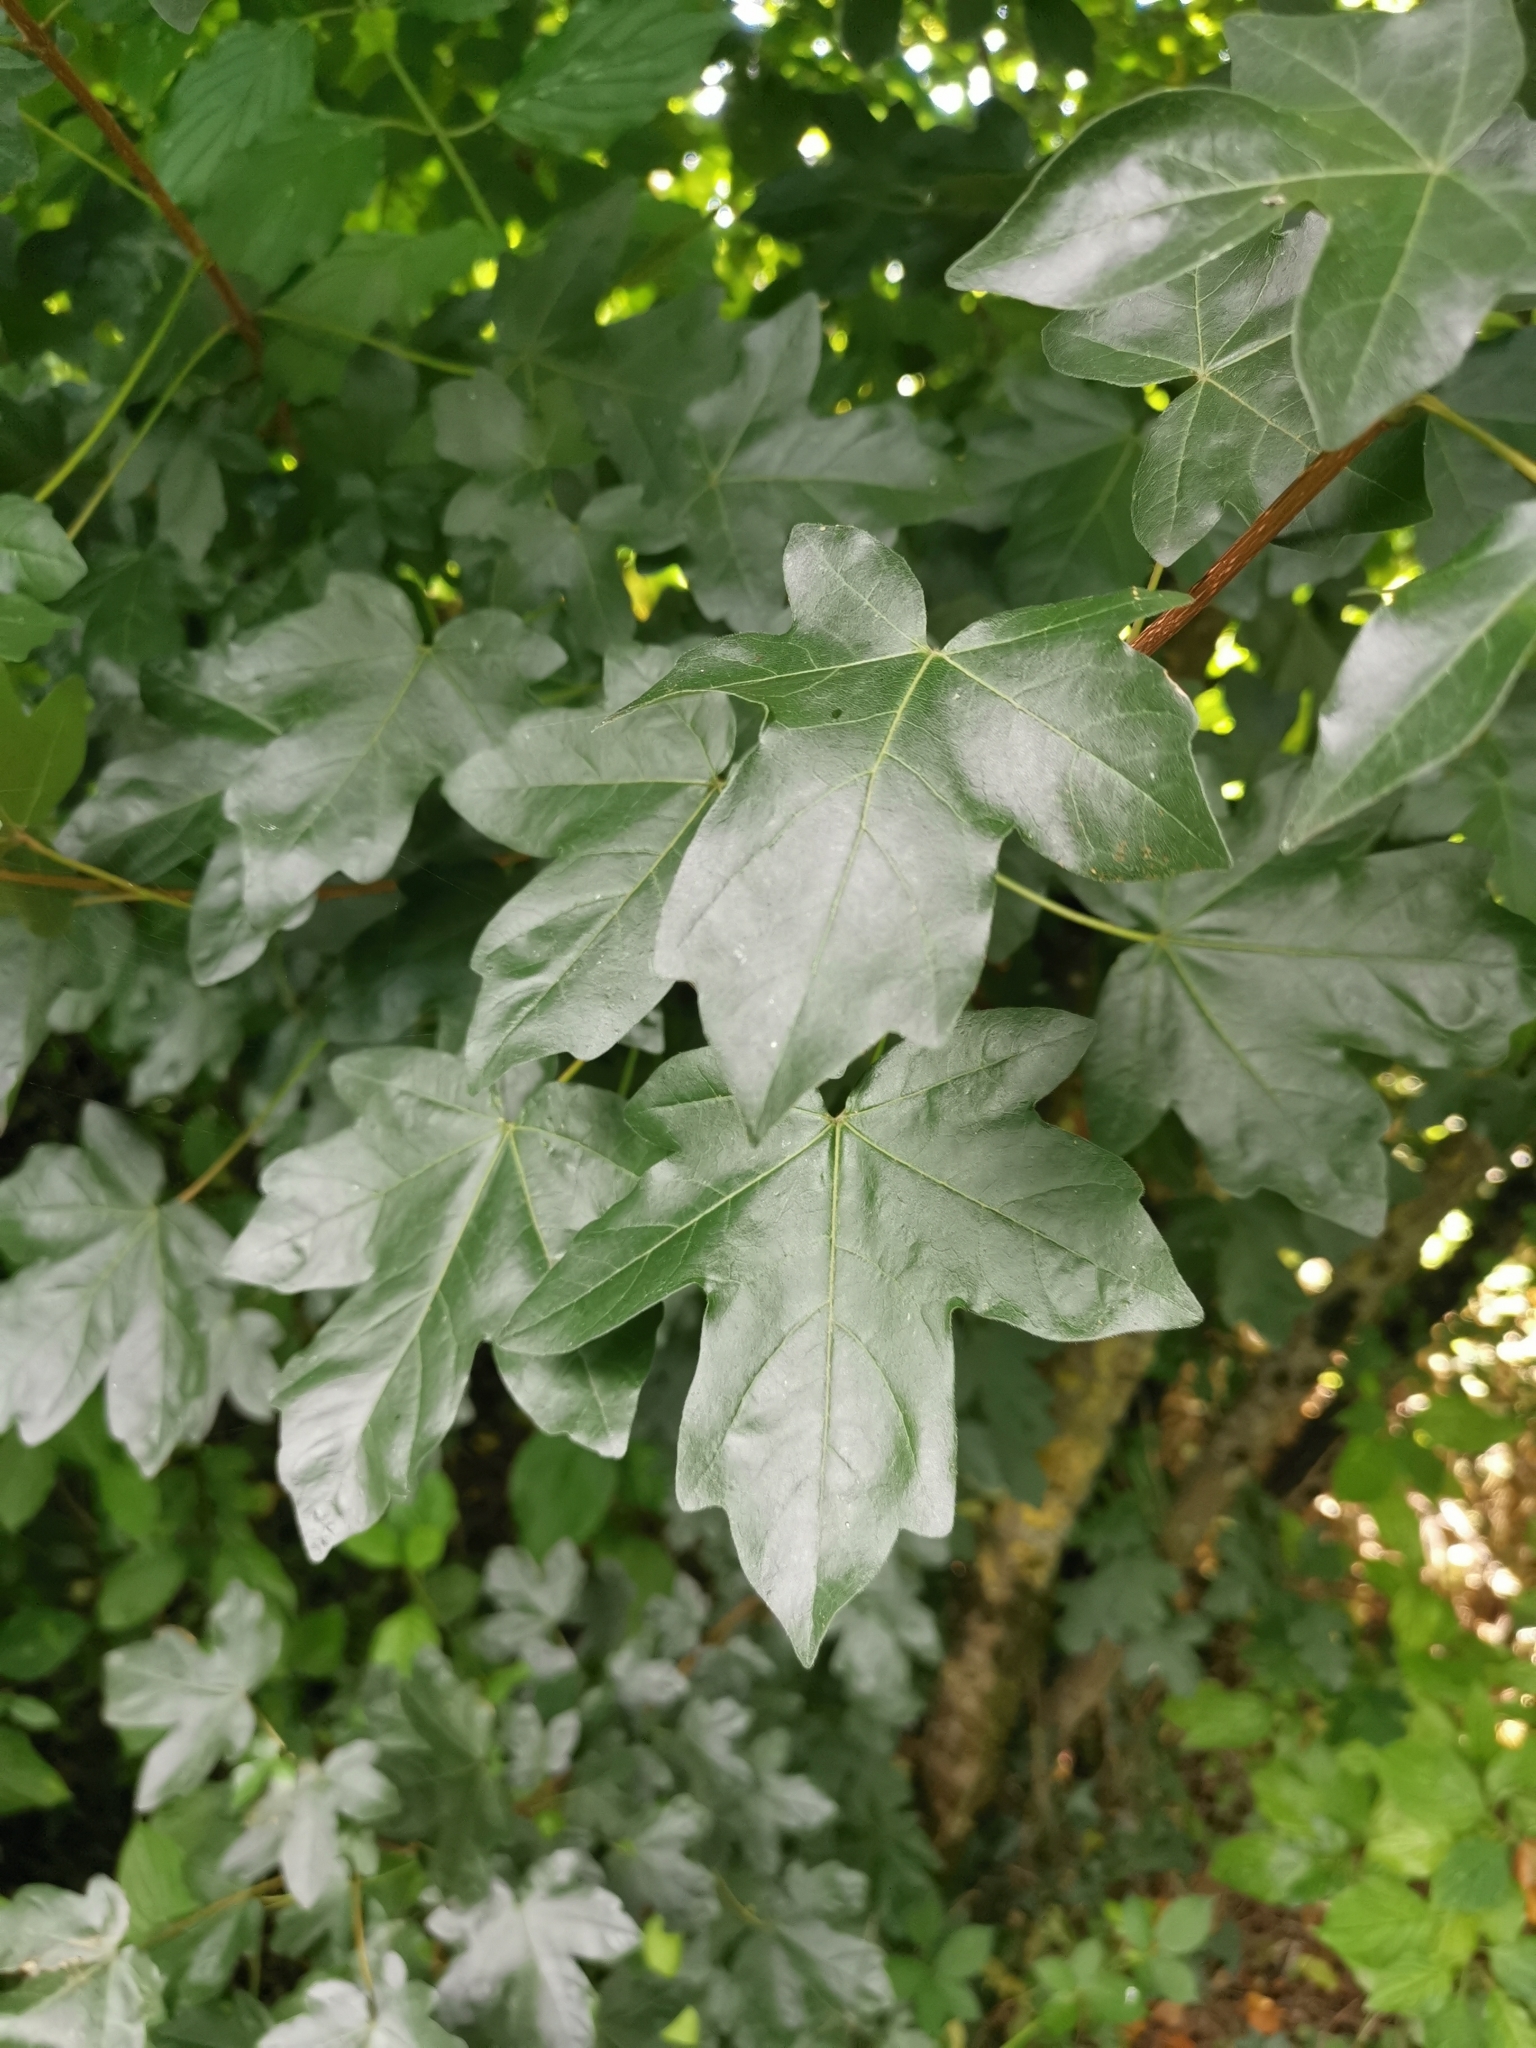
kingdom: Plantae
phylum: Tracheophyta
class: Magnoliopsida
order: Sapindales
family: Sapindaceae
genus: Acer
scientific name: Acer campestre
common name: Field maple
